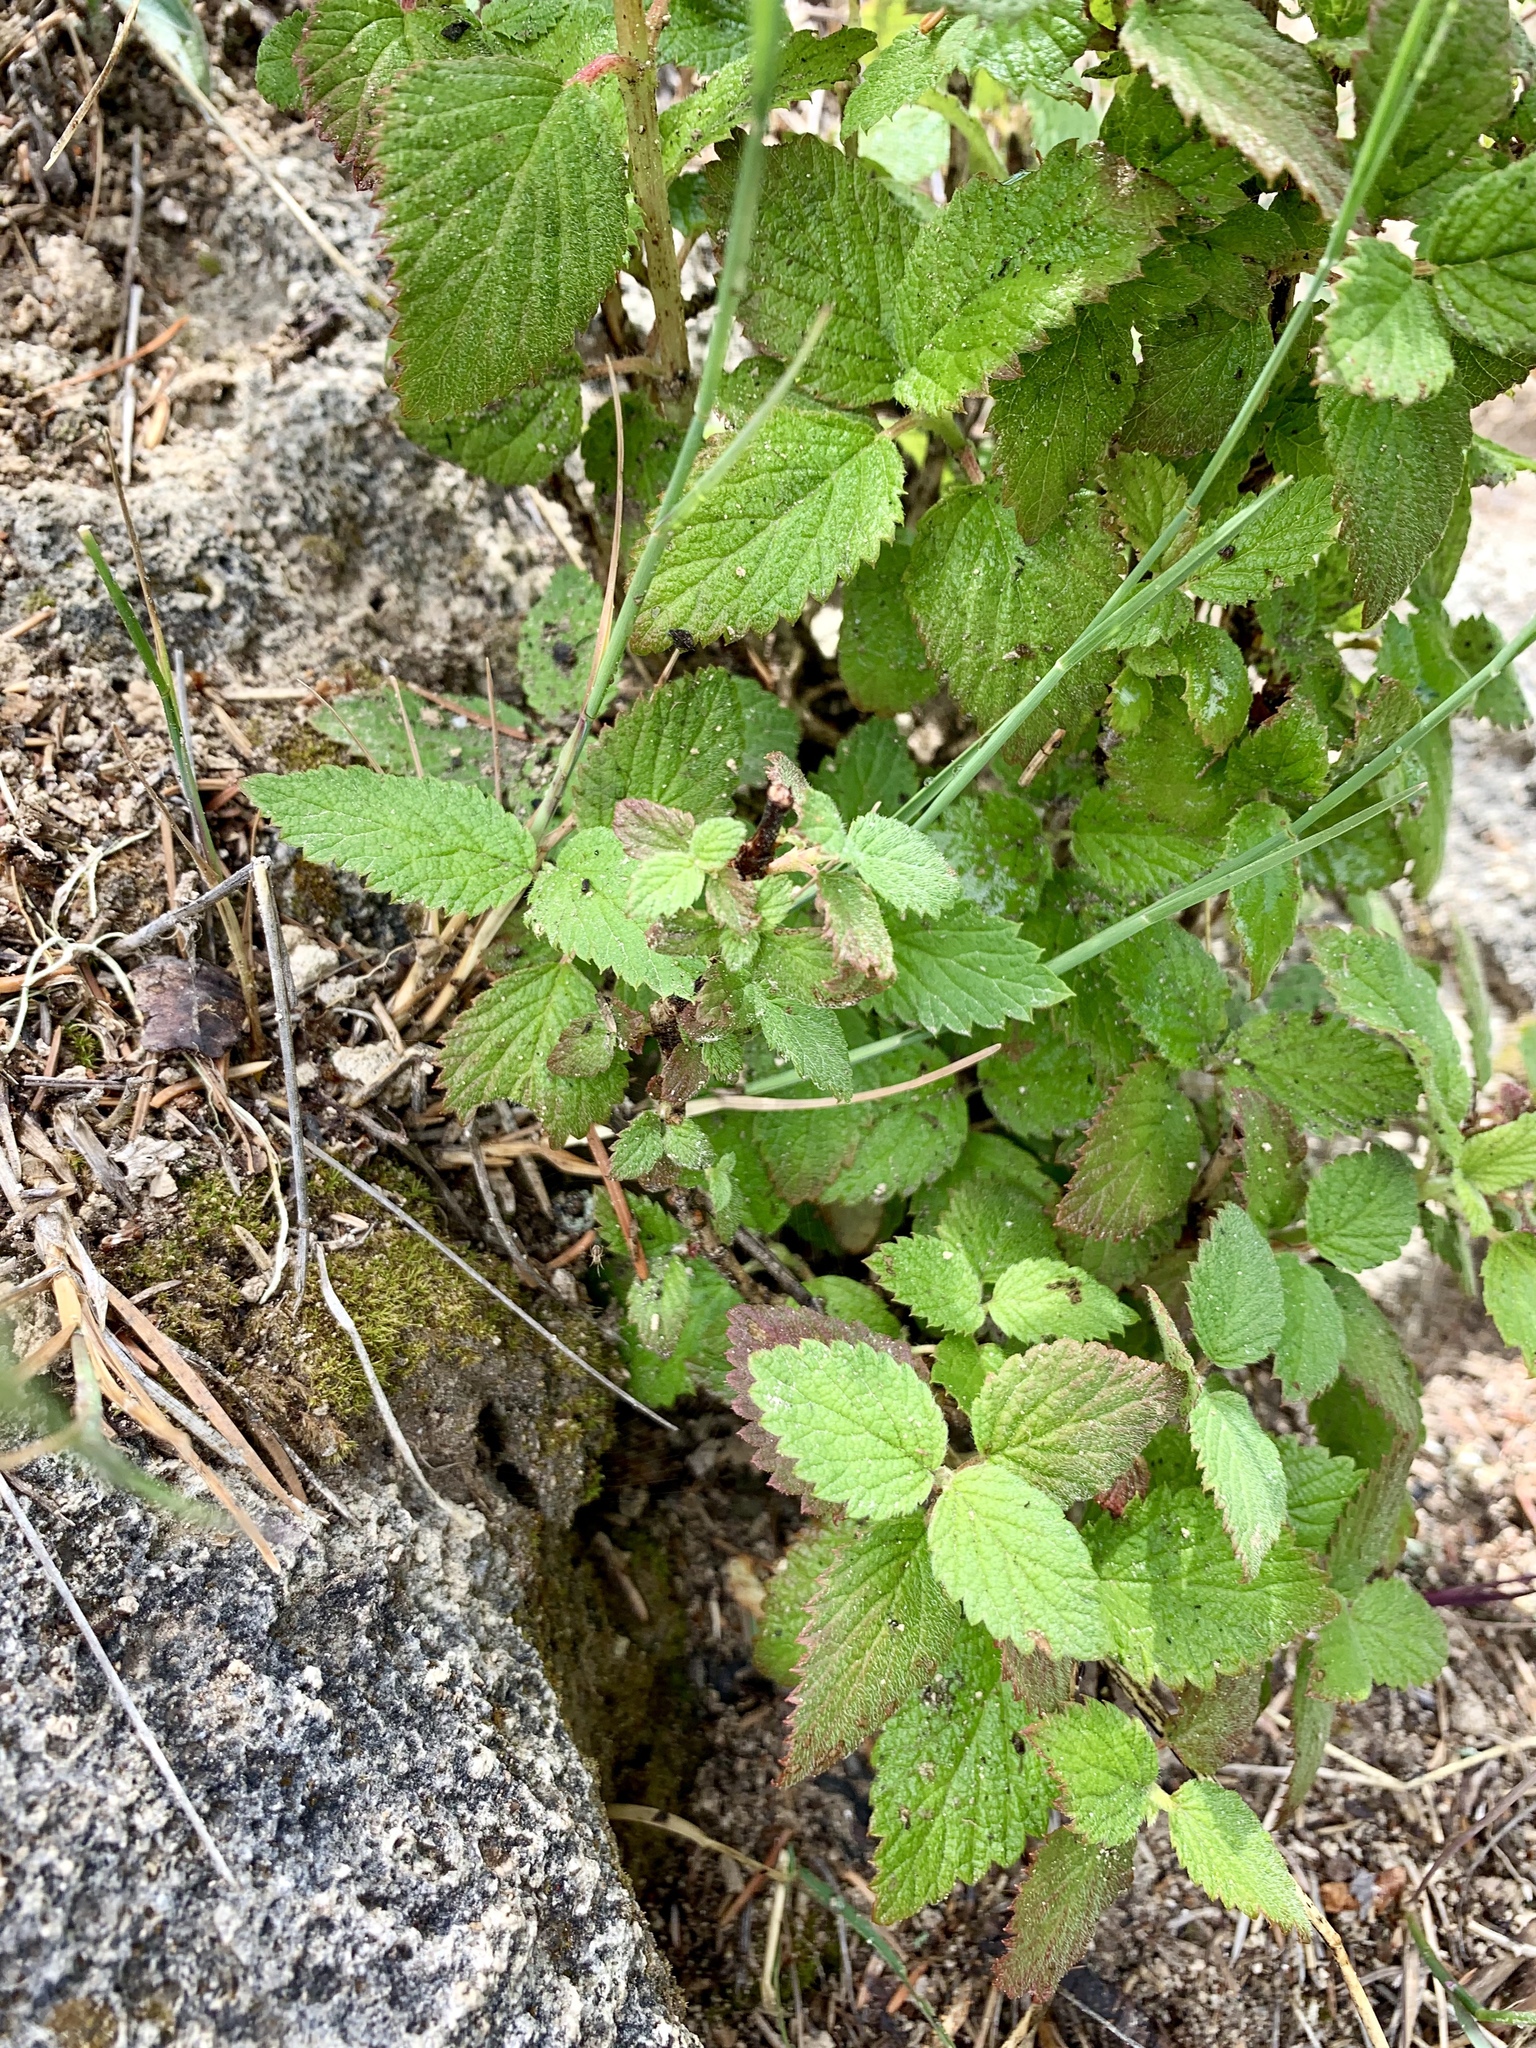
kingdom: Plantae
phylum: Tracheophyta
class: Magnoliopsida
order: Rosales
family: Urticaceae
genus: Urtica
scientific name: Urtica gracilis
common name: Slender stinging nettle
